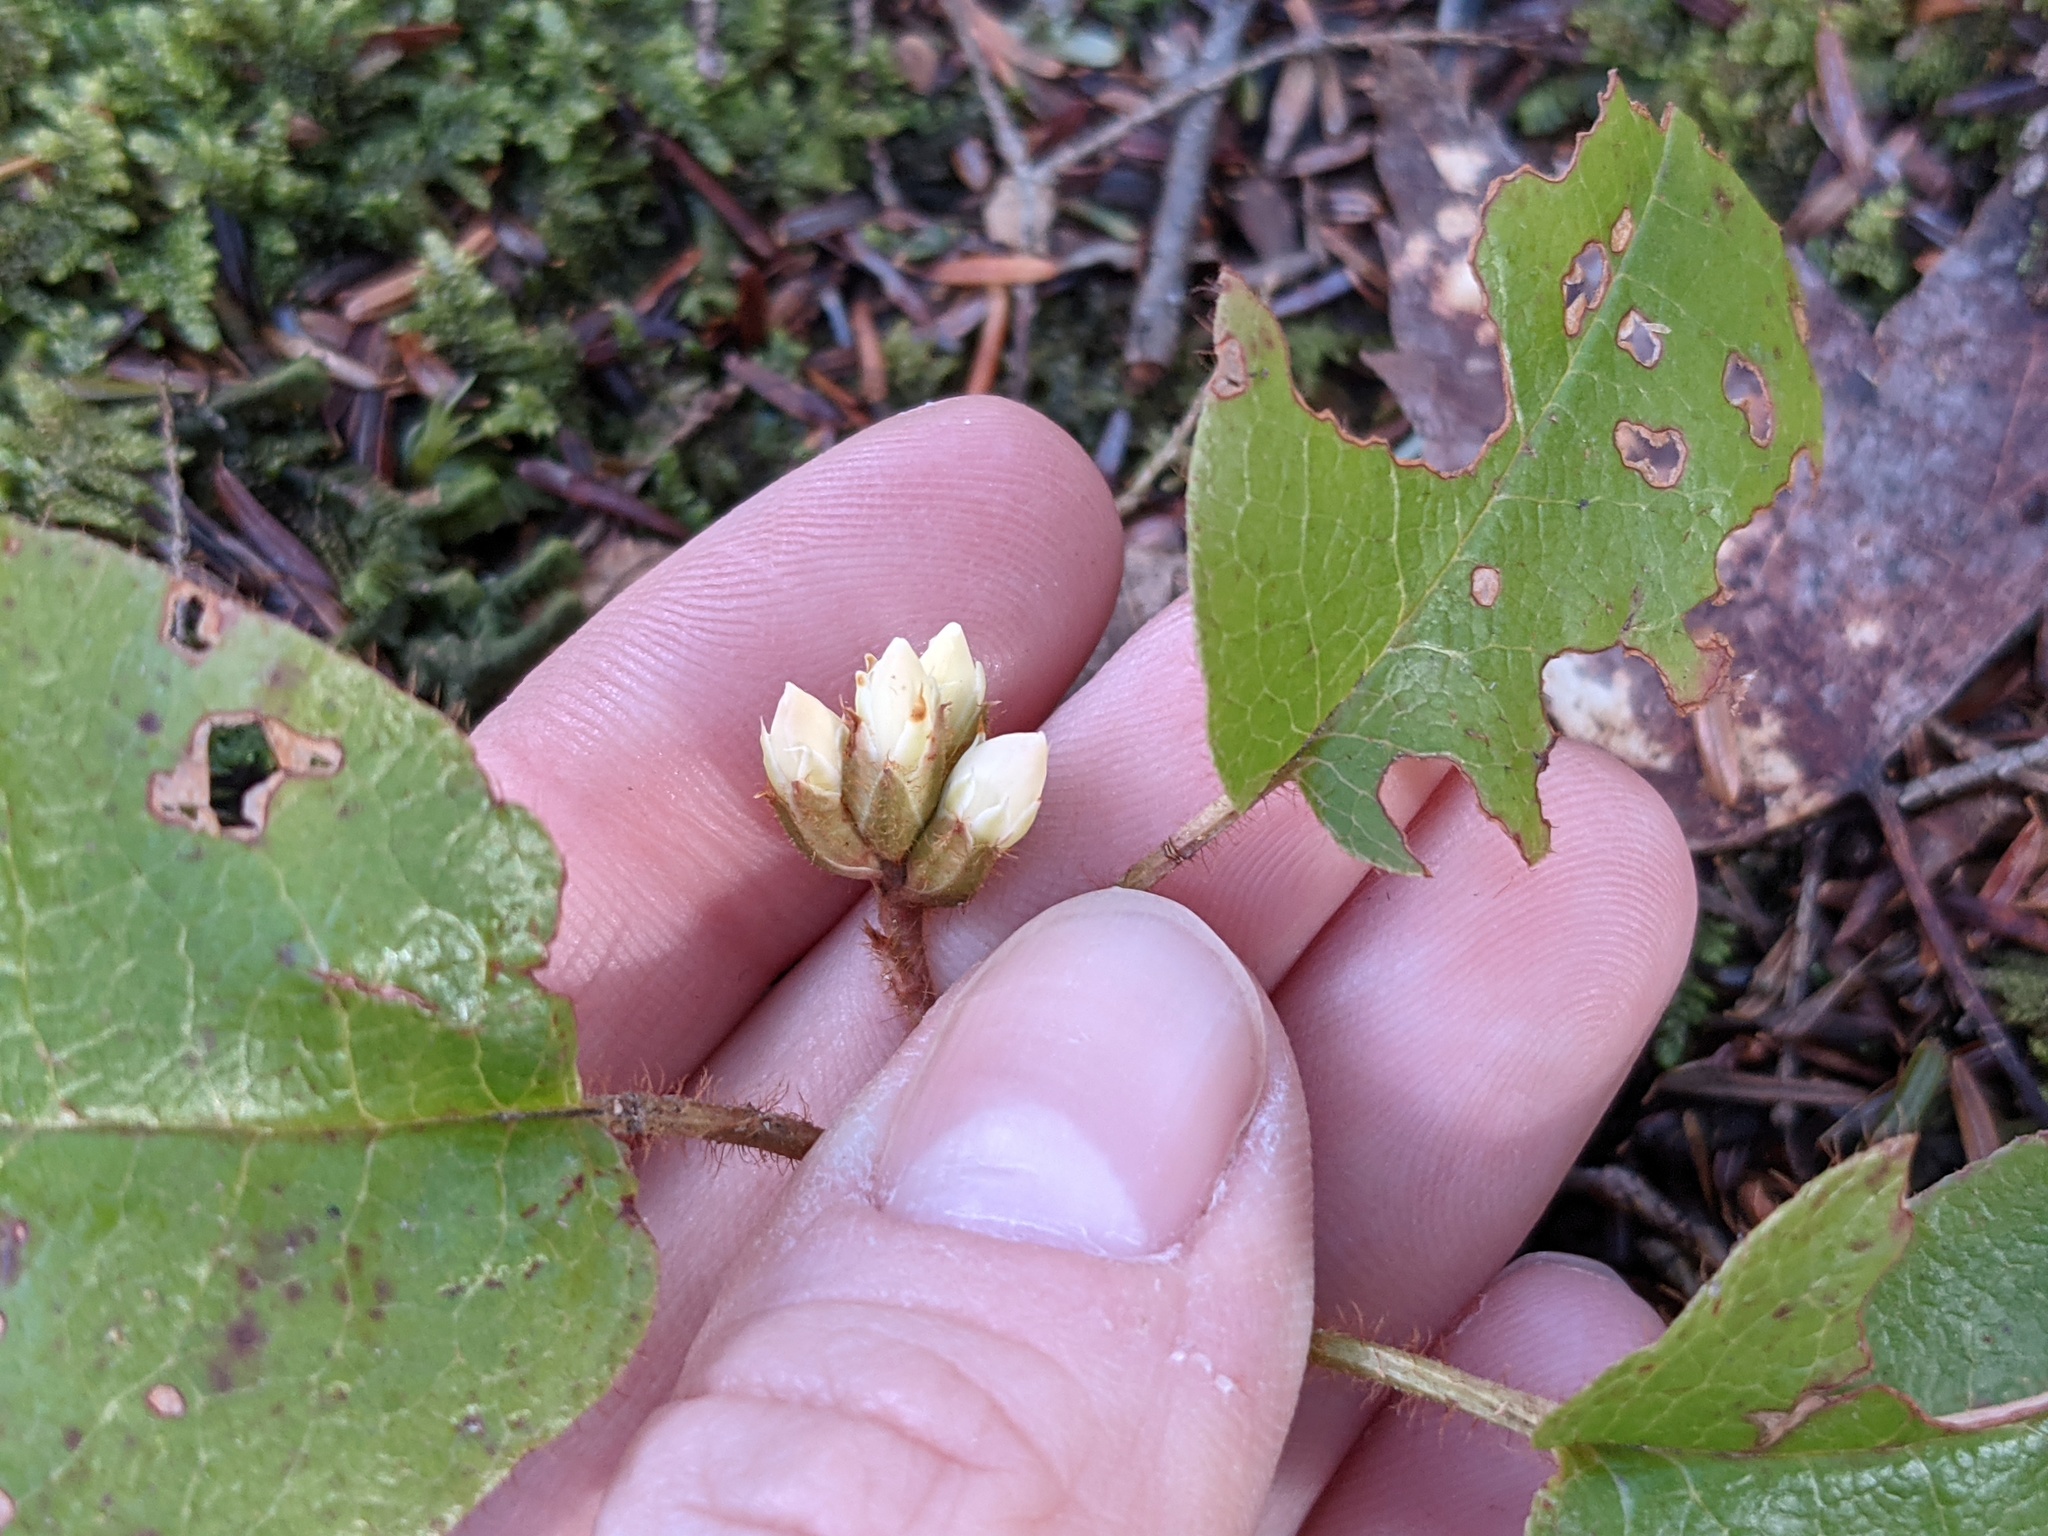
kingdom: Plantae
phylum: Tracheophyta
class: Magnoliopsida
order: Ericales
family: Ericaceae
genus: Epigaea
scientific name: Epigaea repens
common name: Gravelroot
